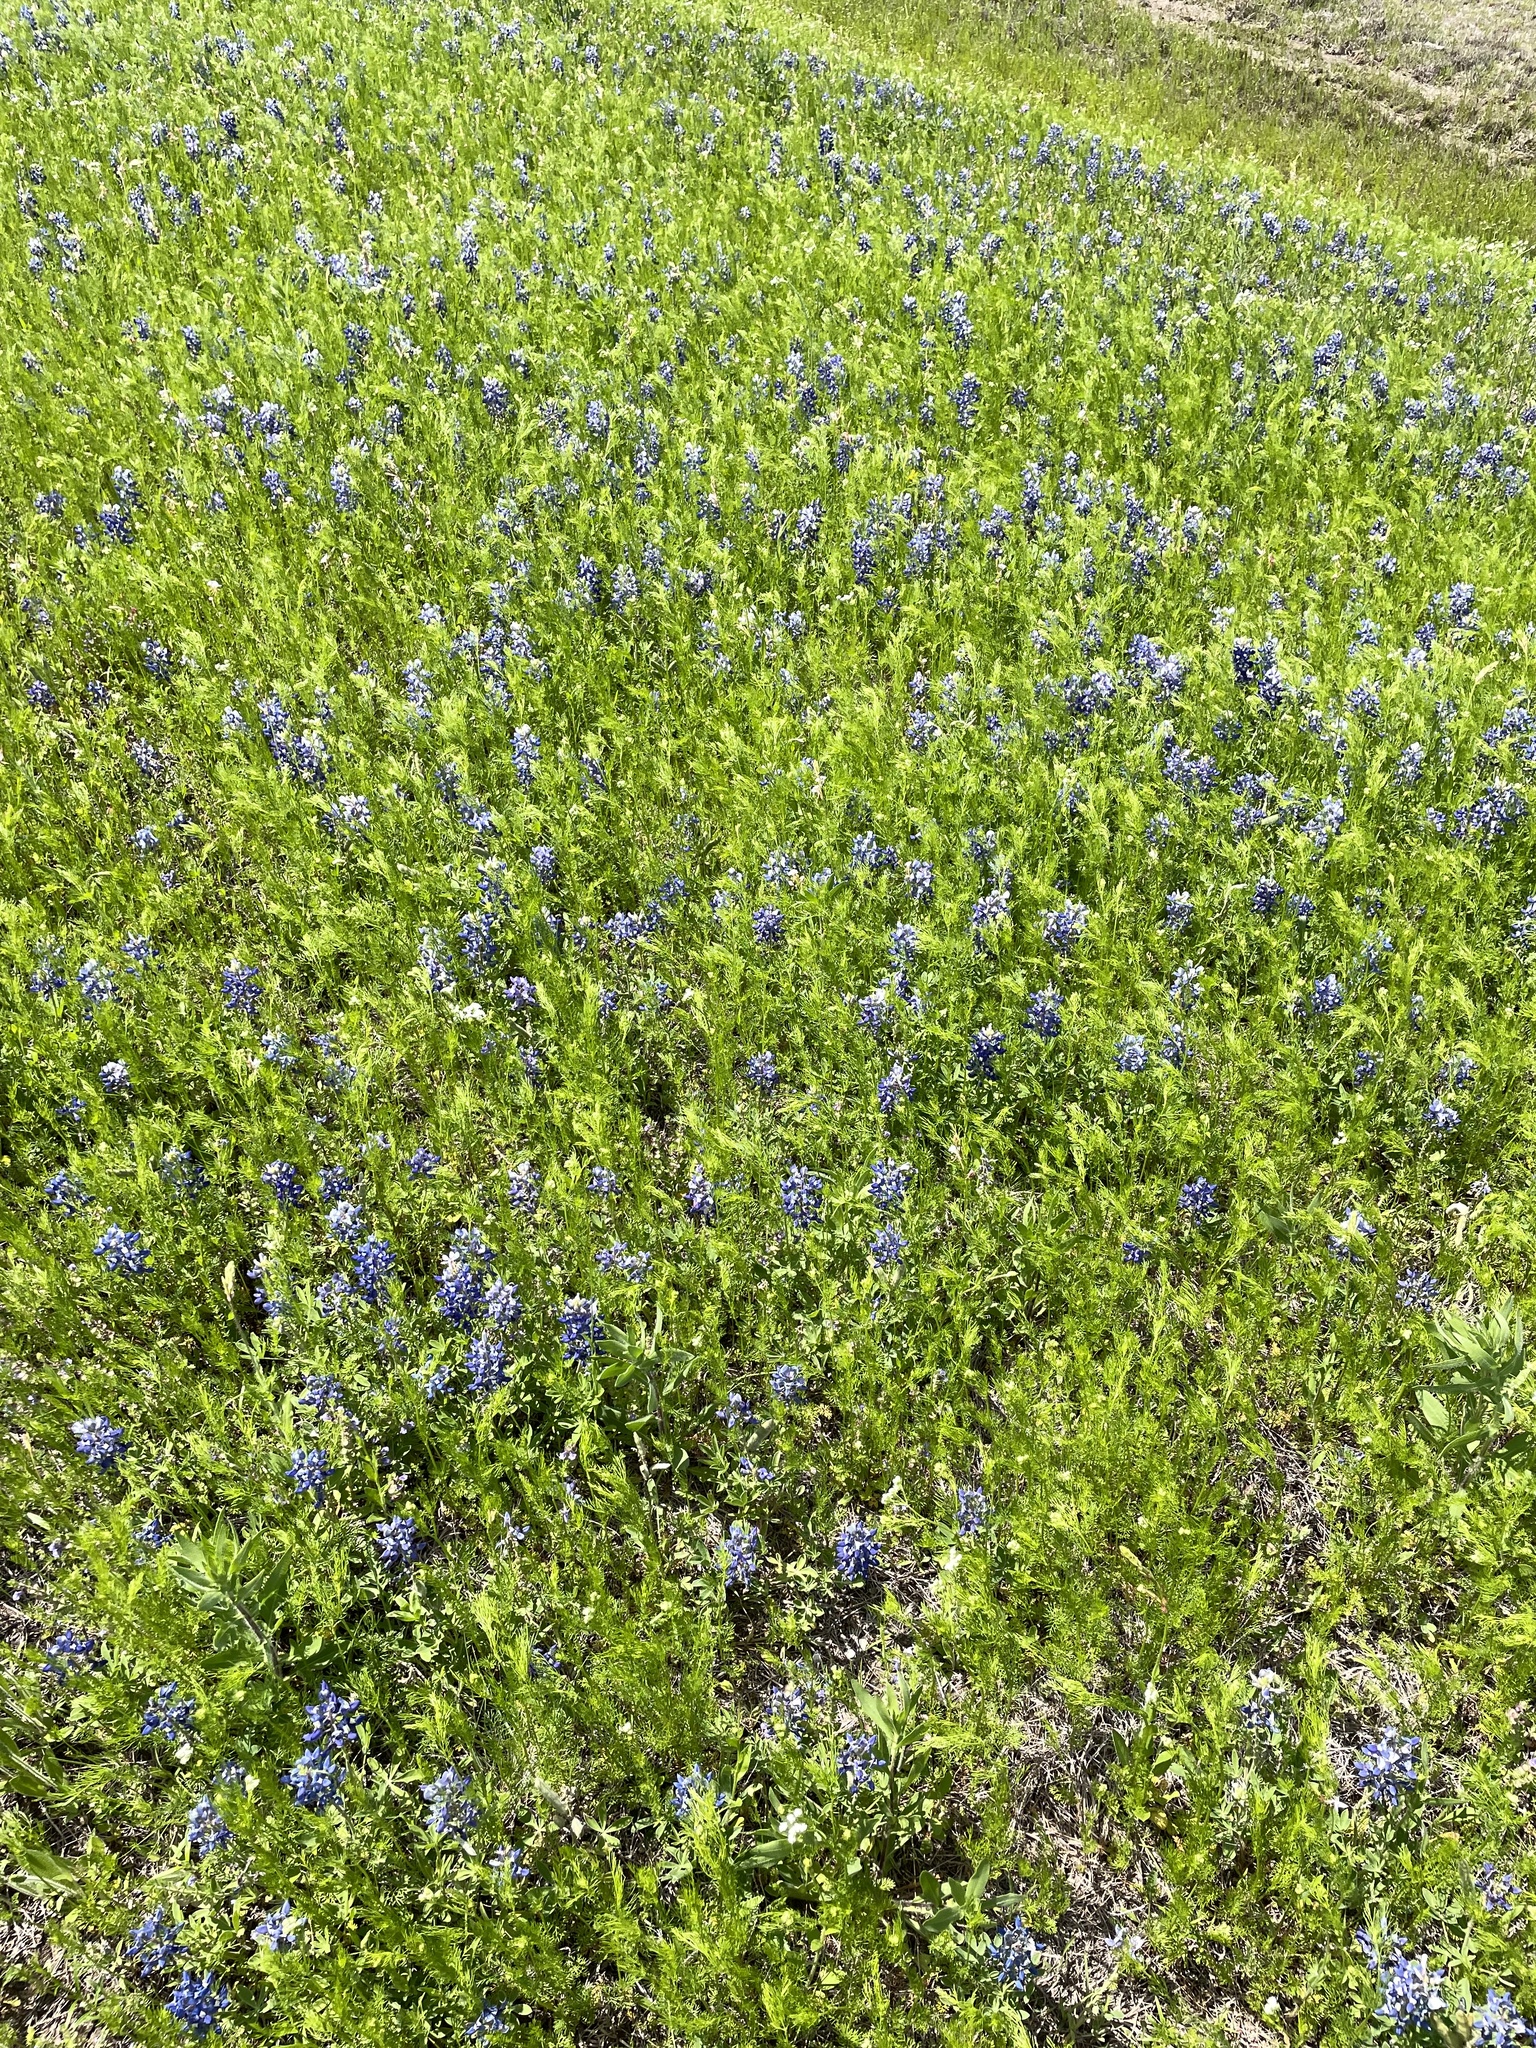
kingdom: Plantae
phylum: Tracheophyta
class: Magnoliopsida
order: Fabales
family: Fabaceae
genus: Lupinus
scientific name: Lupinus texensis
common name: Texas bluebonnet
